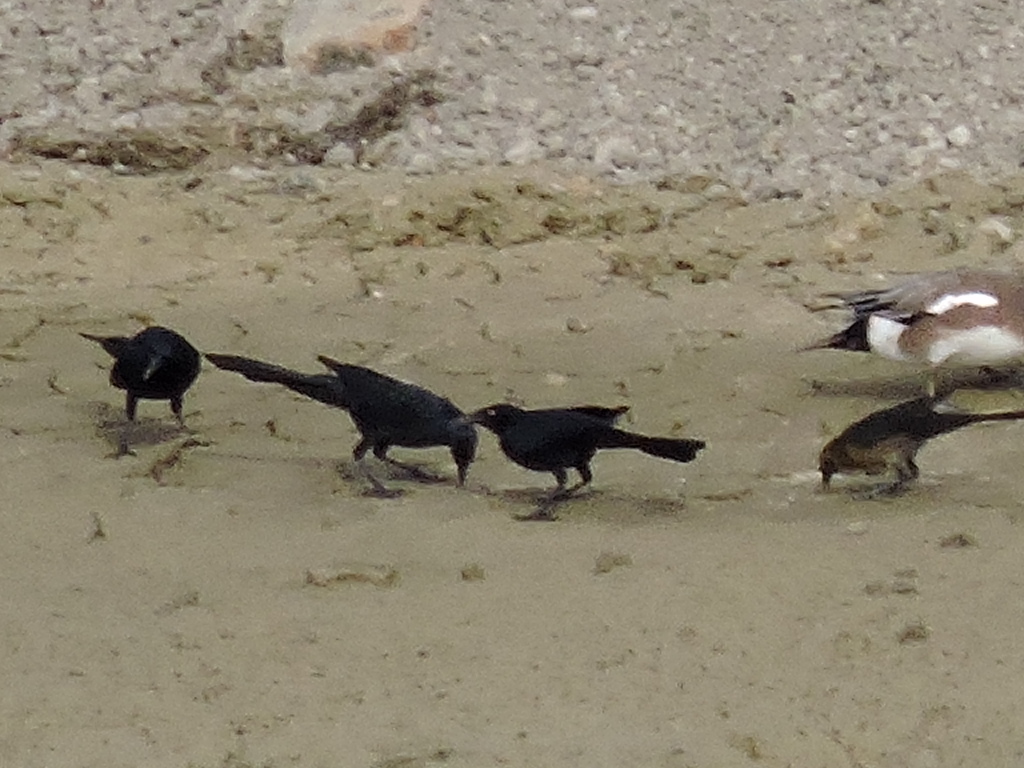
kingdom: Animalia
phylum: Chordata
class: Aves
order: Passeriformes
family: Icteridae
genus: Quiscalus
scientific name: Quiscalus mexicanus
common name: Great-tailed grackle
